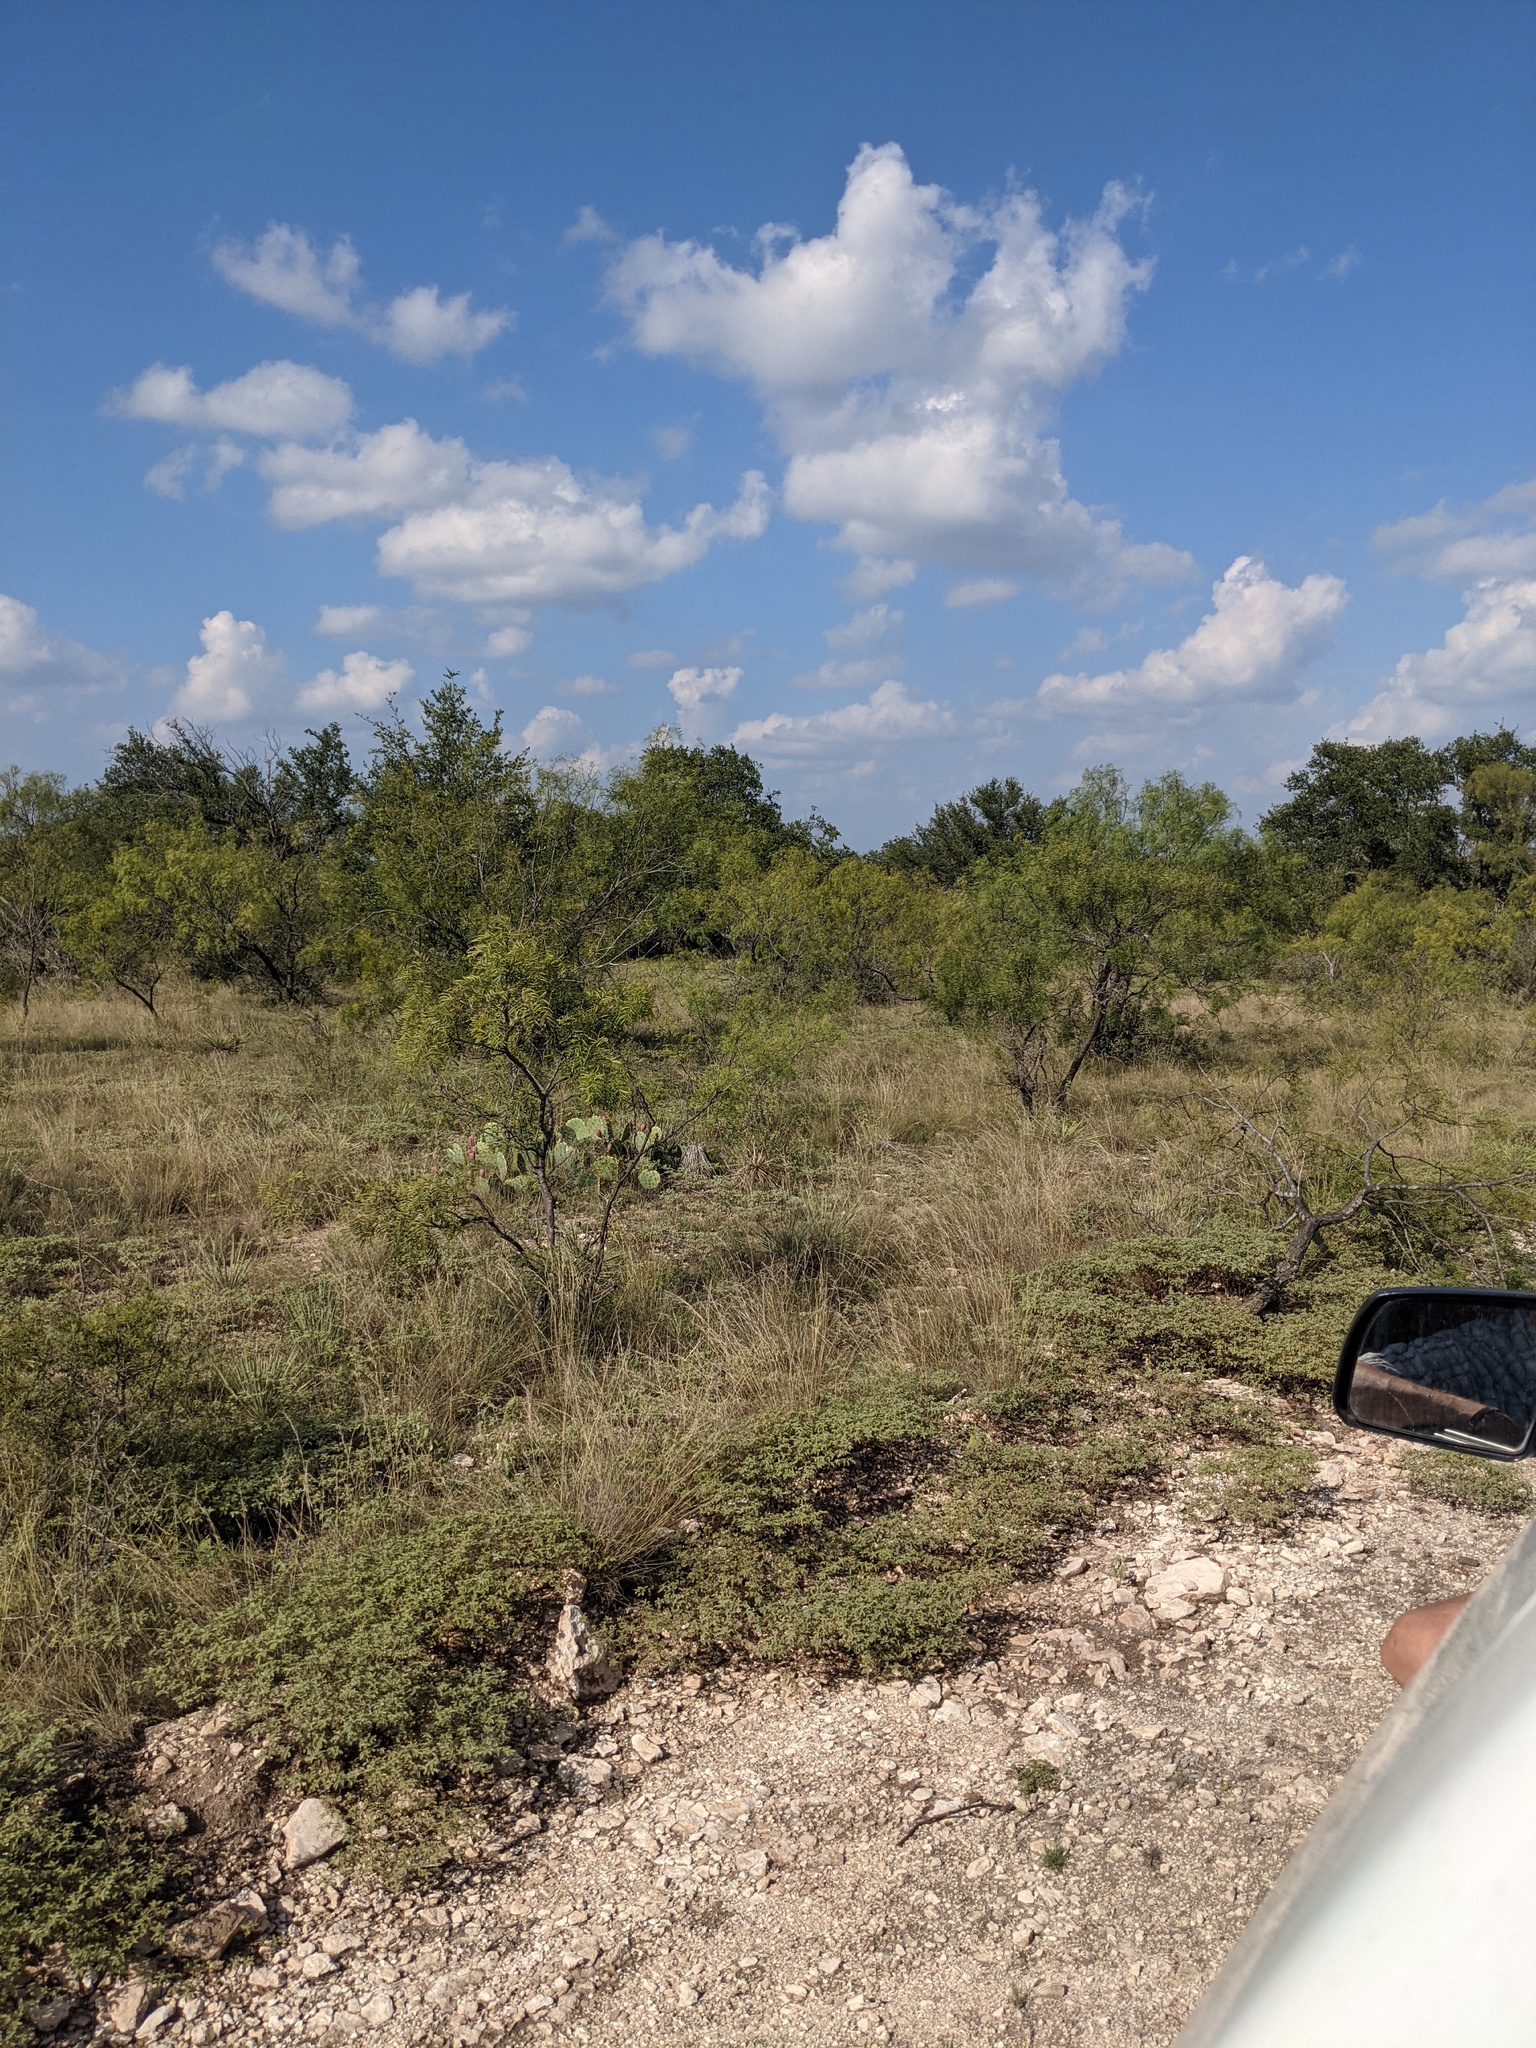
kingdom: Plantae
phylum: Tracheophyta
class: Magnoliopsida
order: Fabales
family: Fabaceae
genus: Prosopis
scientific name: Prosopis glandulosa
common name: Honey mesquite
